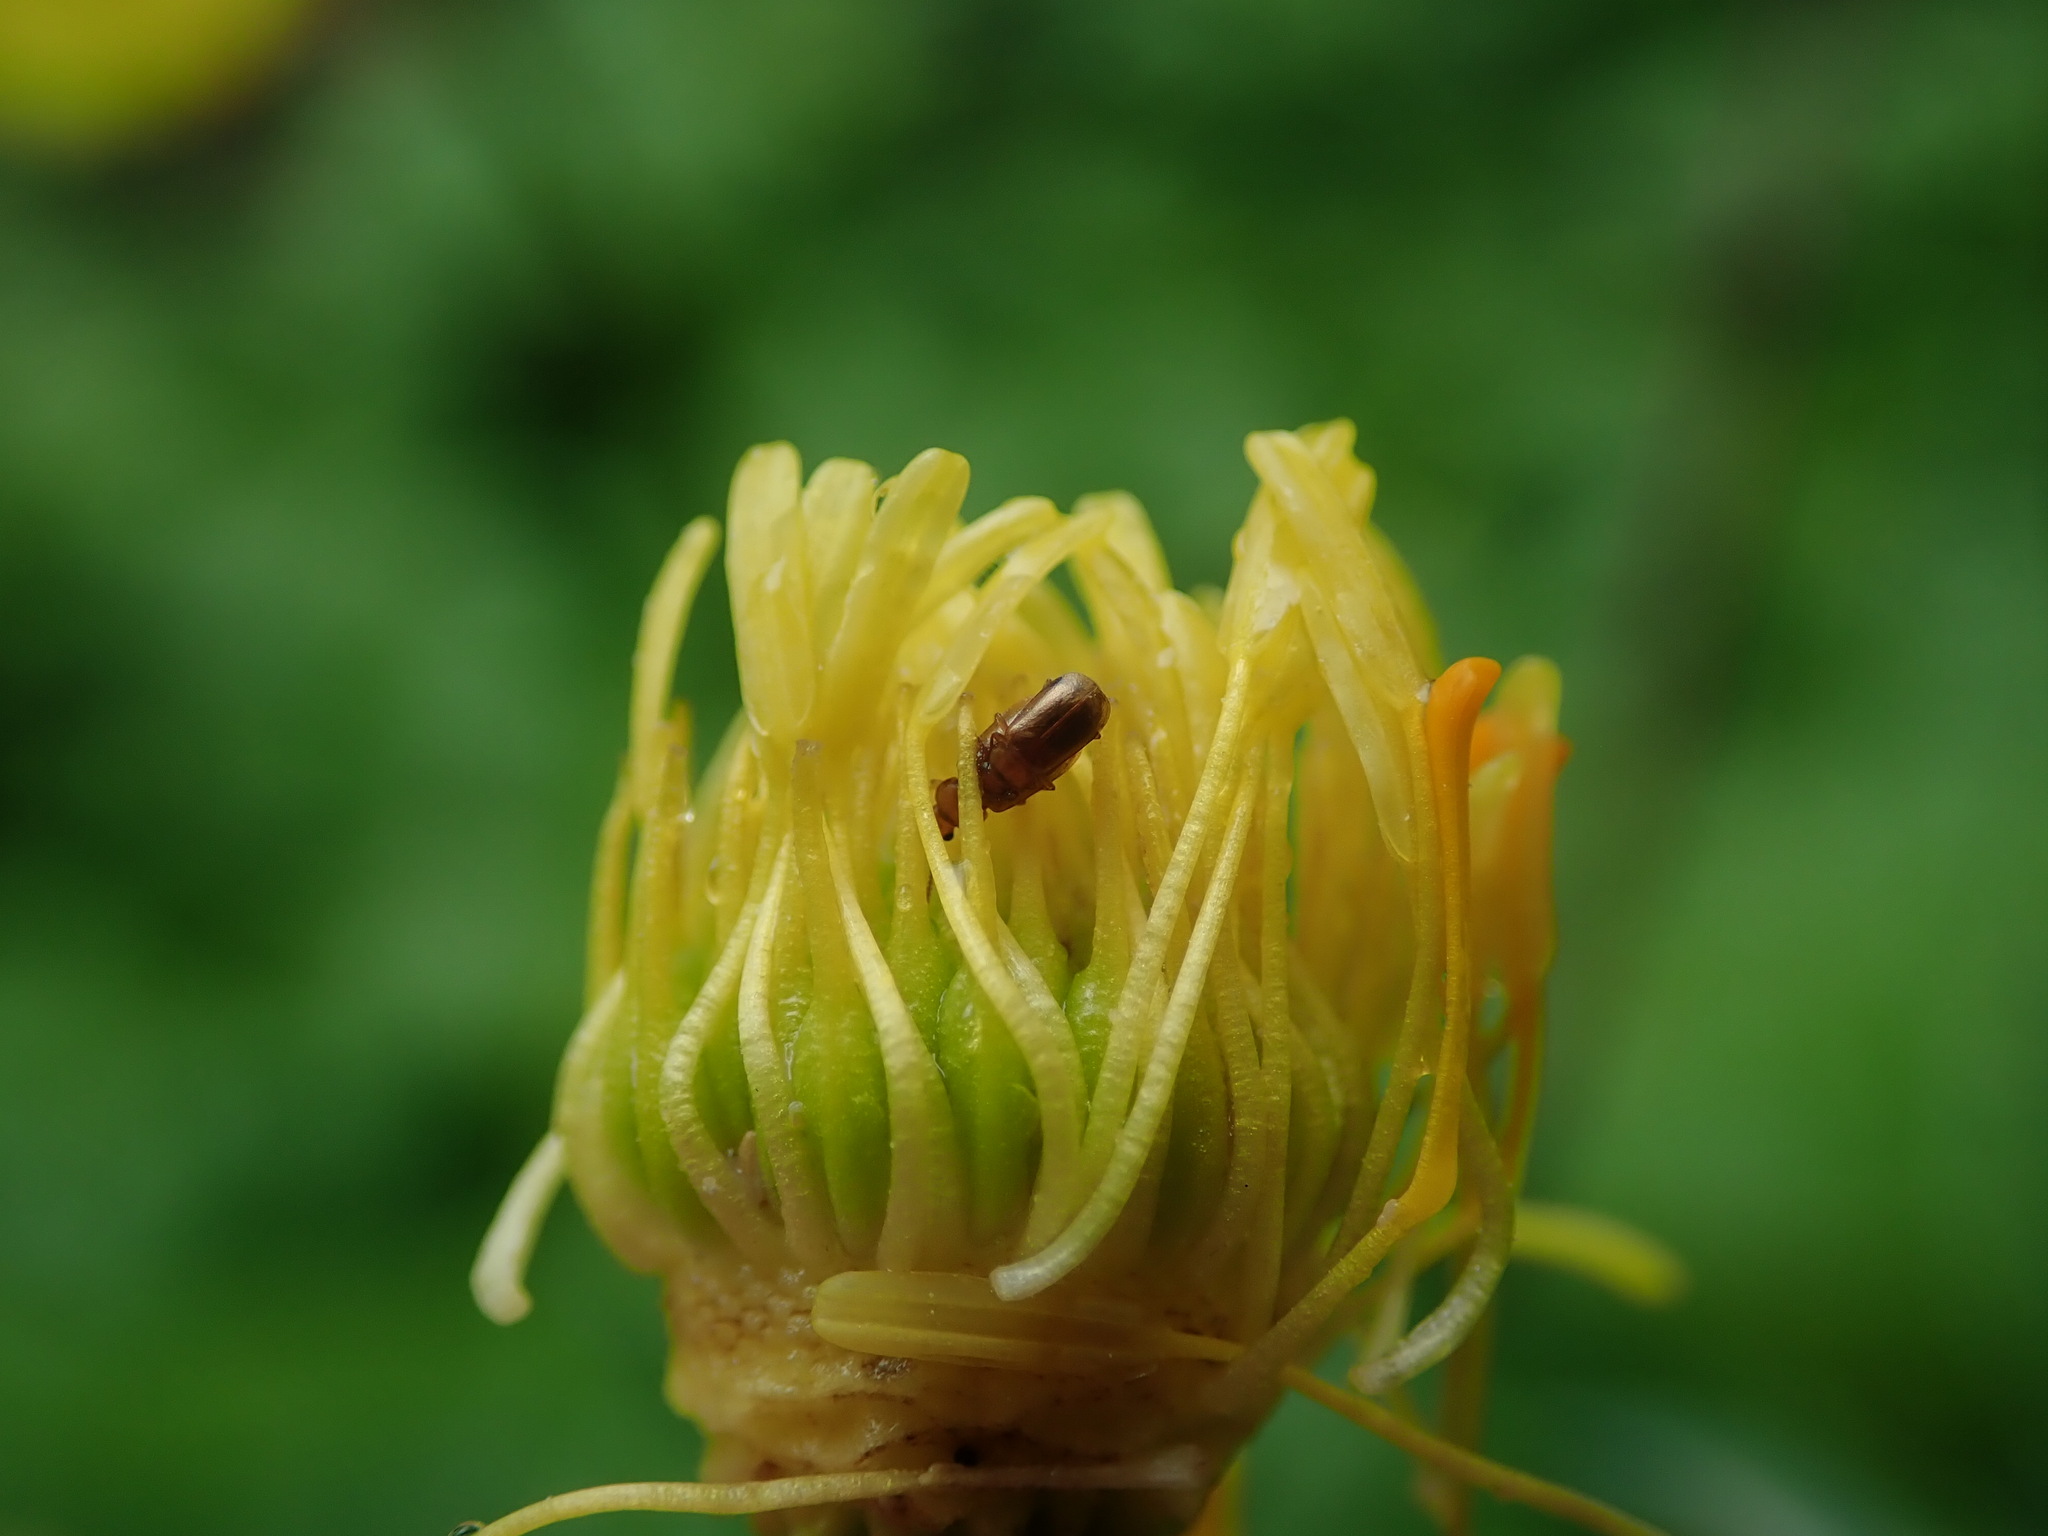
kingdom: Plantae
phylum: Tracheophyta
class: Magnoliopsida
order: Ranunculales
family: Ranunculaceae
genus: Trollius
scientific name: Trollius europaeus
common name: European globeflower
